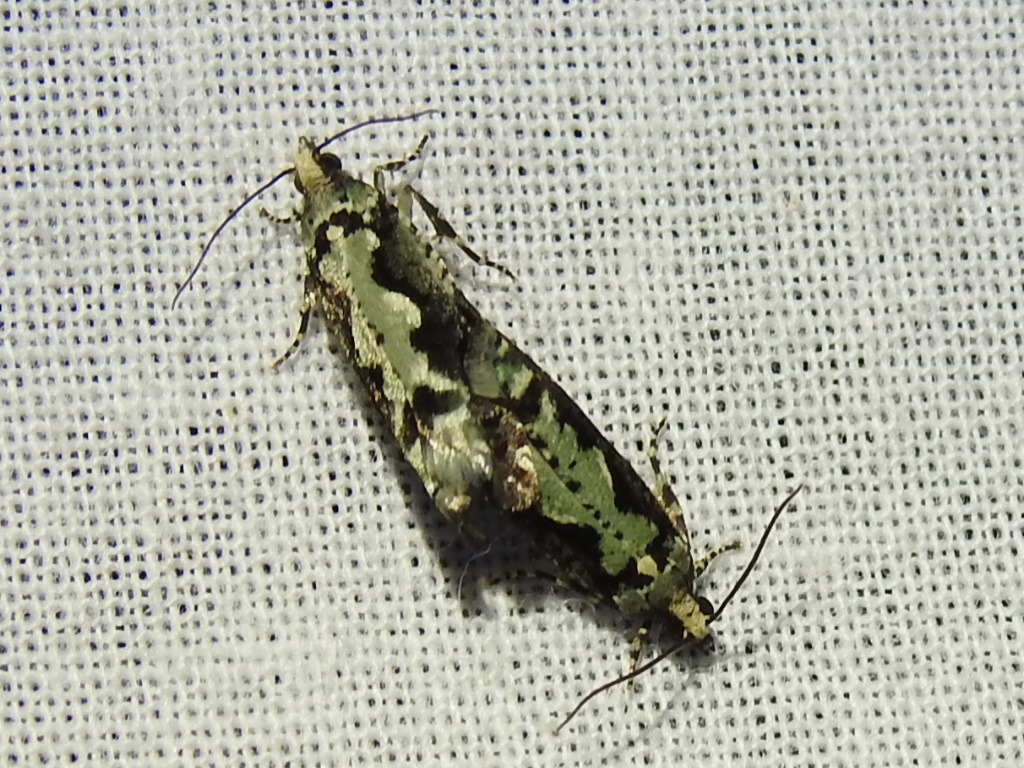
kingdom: Animalia
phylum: Arthropoda
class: Insecta
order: Lepidoptera
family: Tortricidae
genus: Chimoptesis
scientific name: Chimoptesis pennsylvaniana
